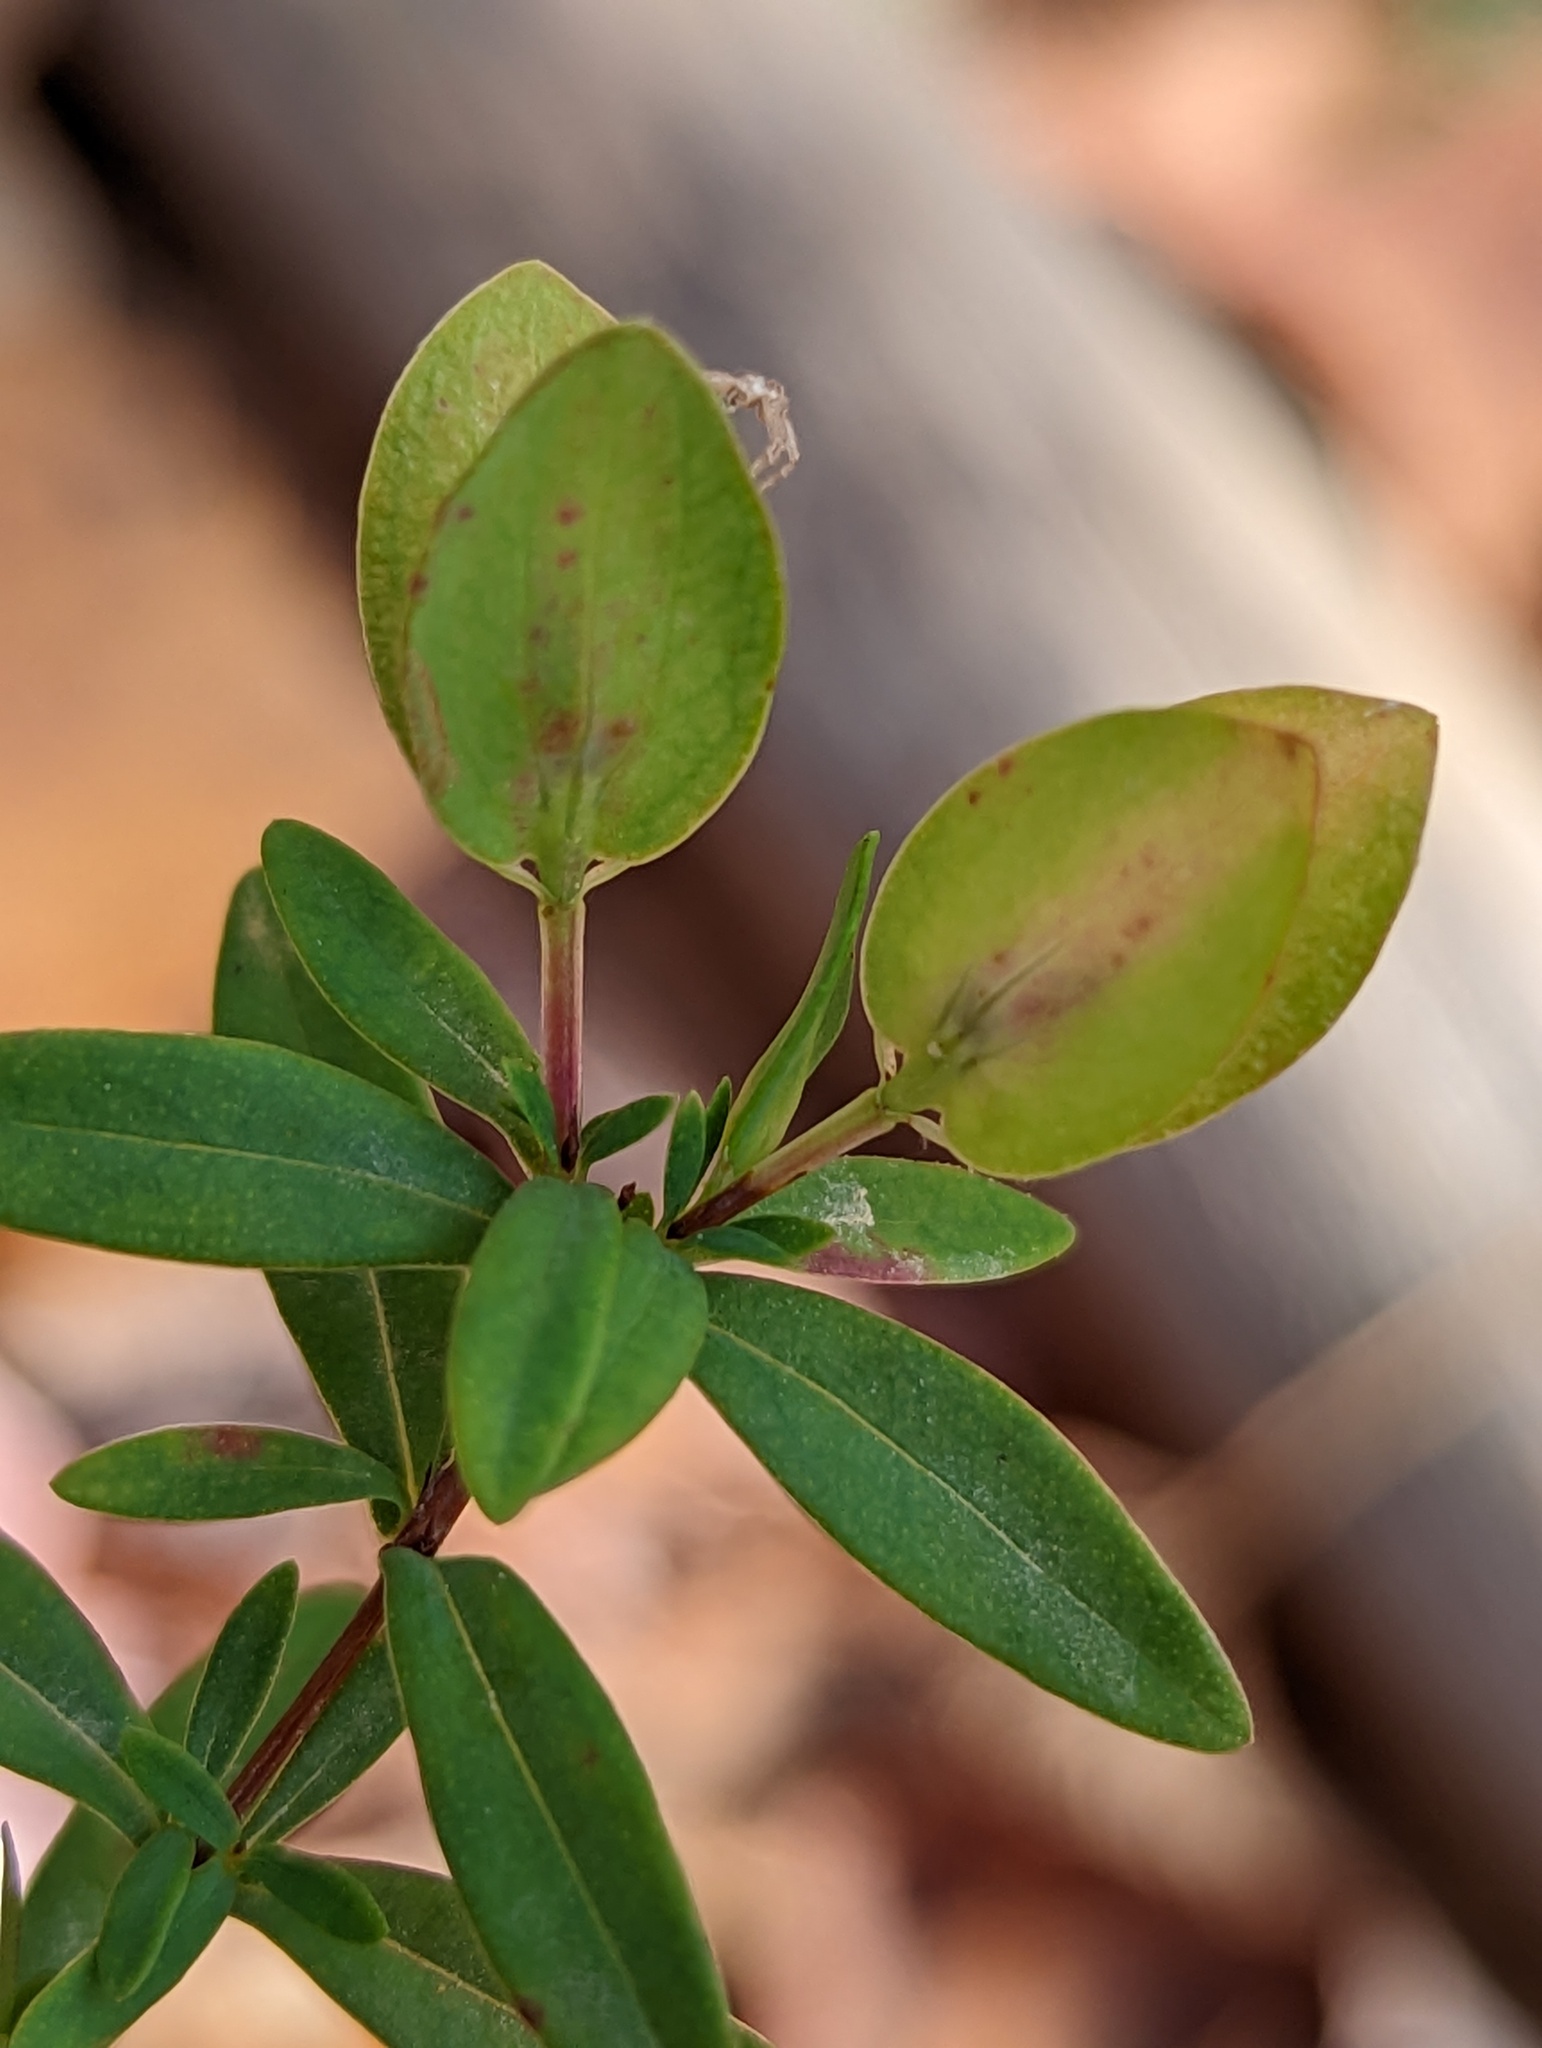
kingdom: Plantae
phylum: Tracheophyta
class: Magnoliopsida
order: Malpighiales
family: Hypericaceae
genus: Hypericum
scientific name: Hypericum hypericoides
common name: St. andrew's cross
